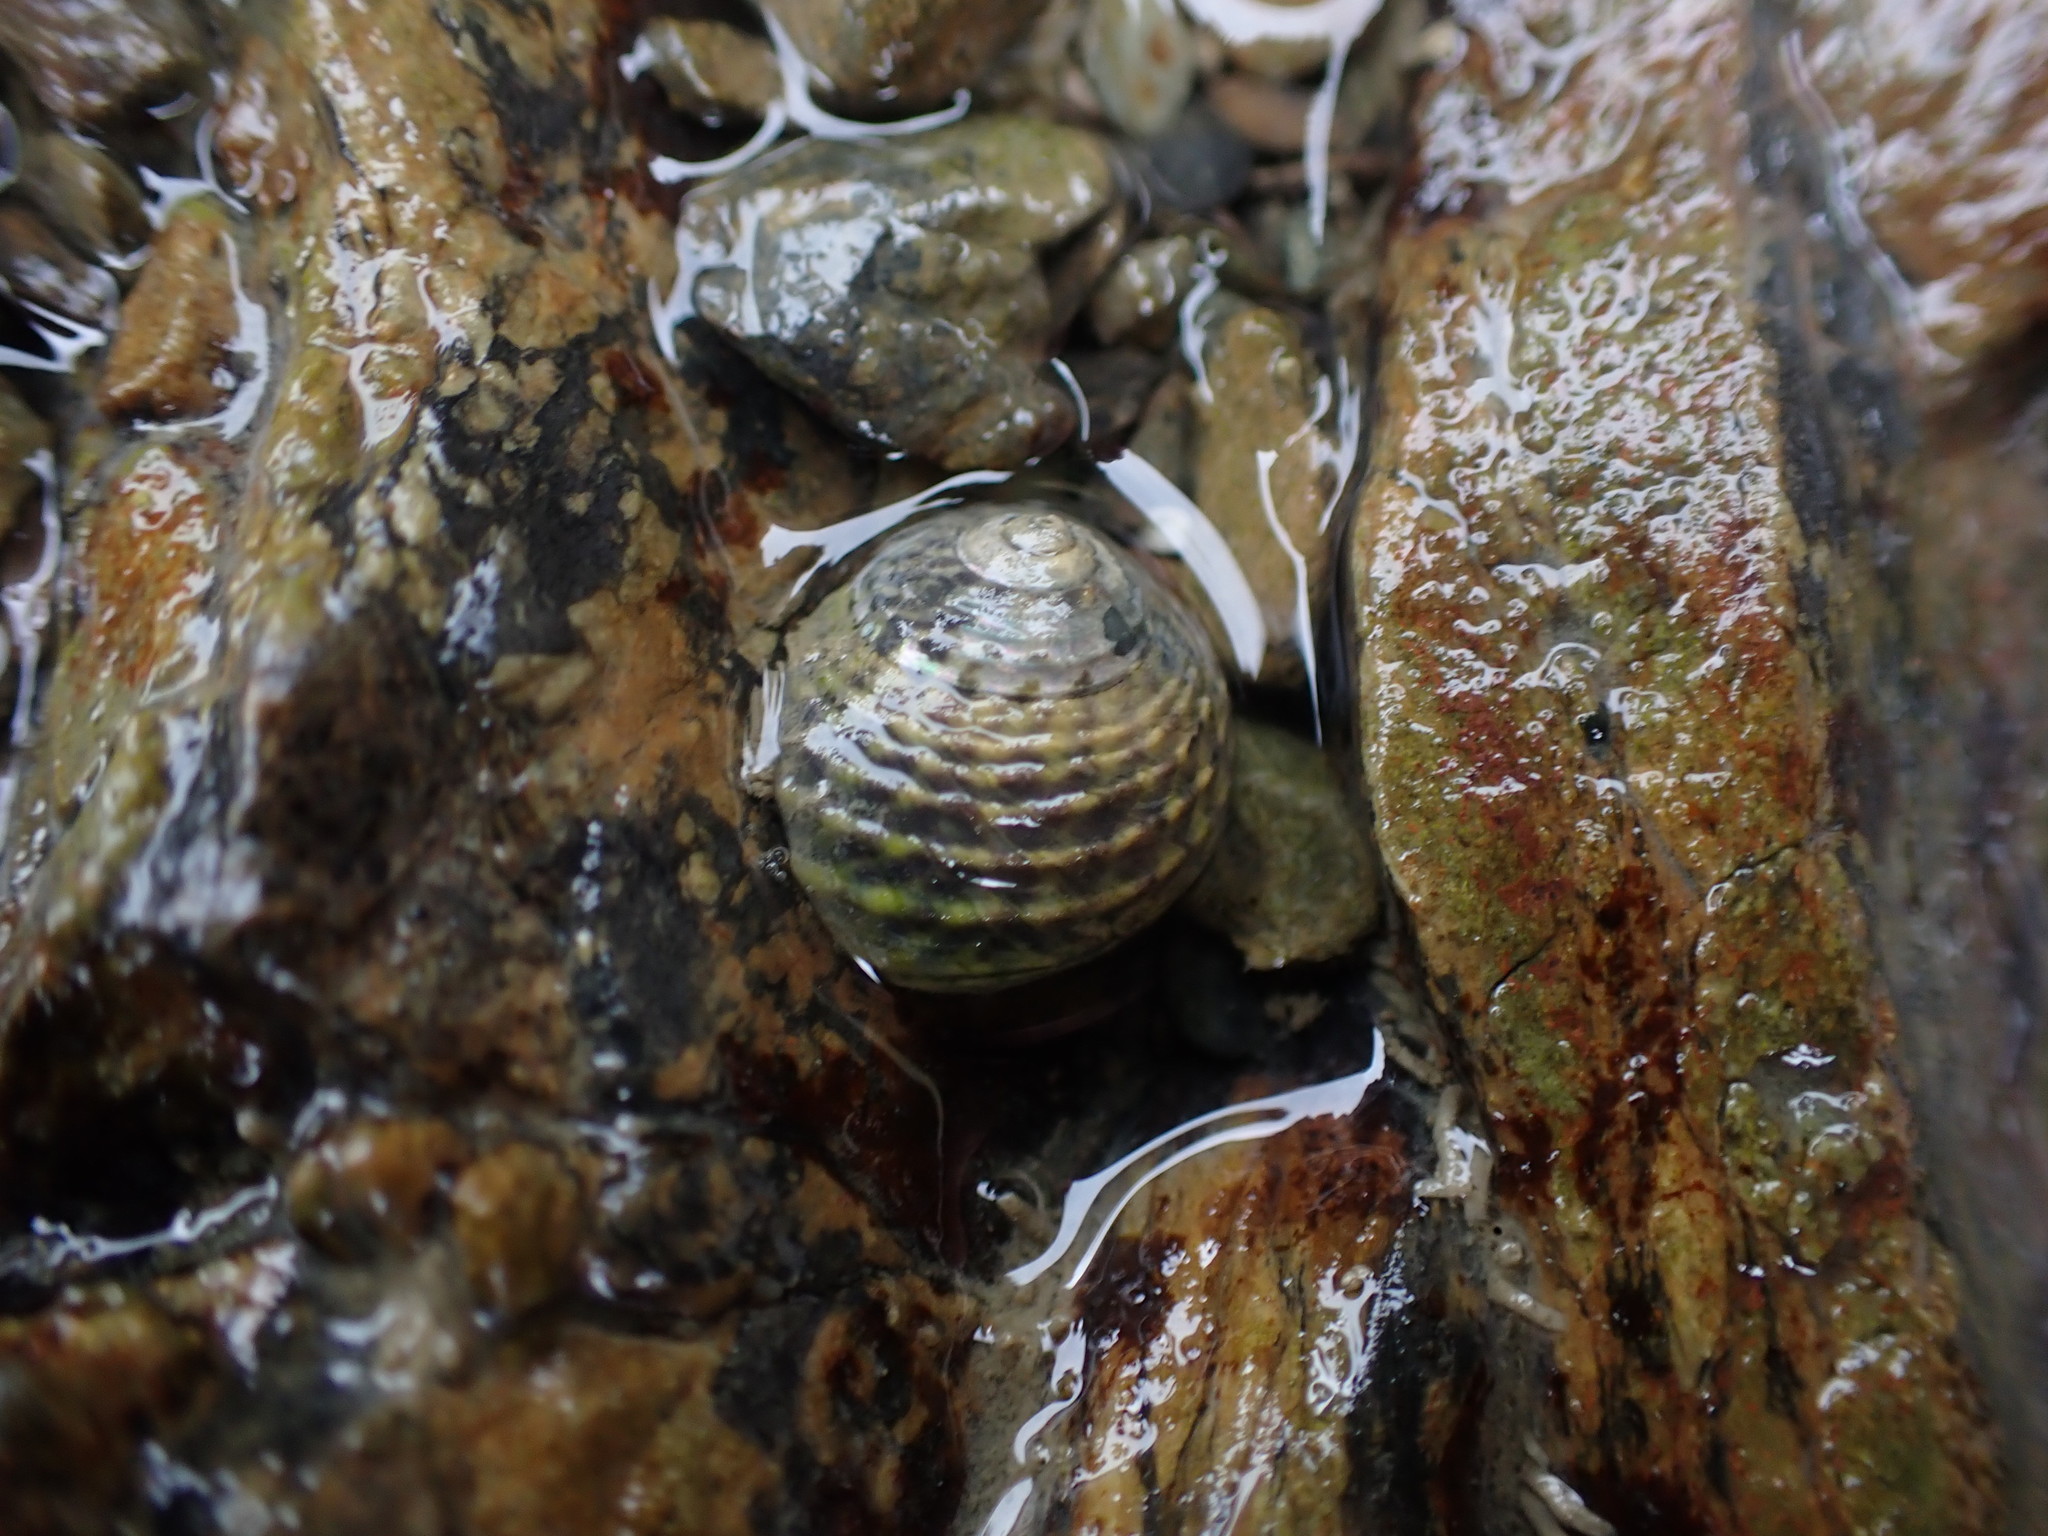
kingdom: Animalia
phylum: Mollusca
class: Gastropoda
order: Trochida
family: Trochidae
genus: Diloma
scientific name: Diloma subrostratum
